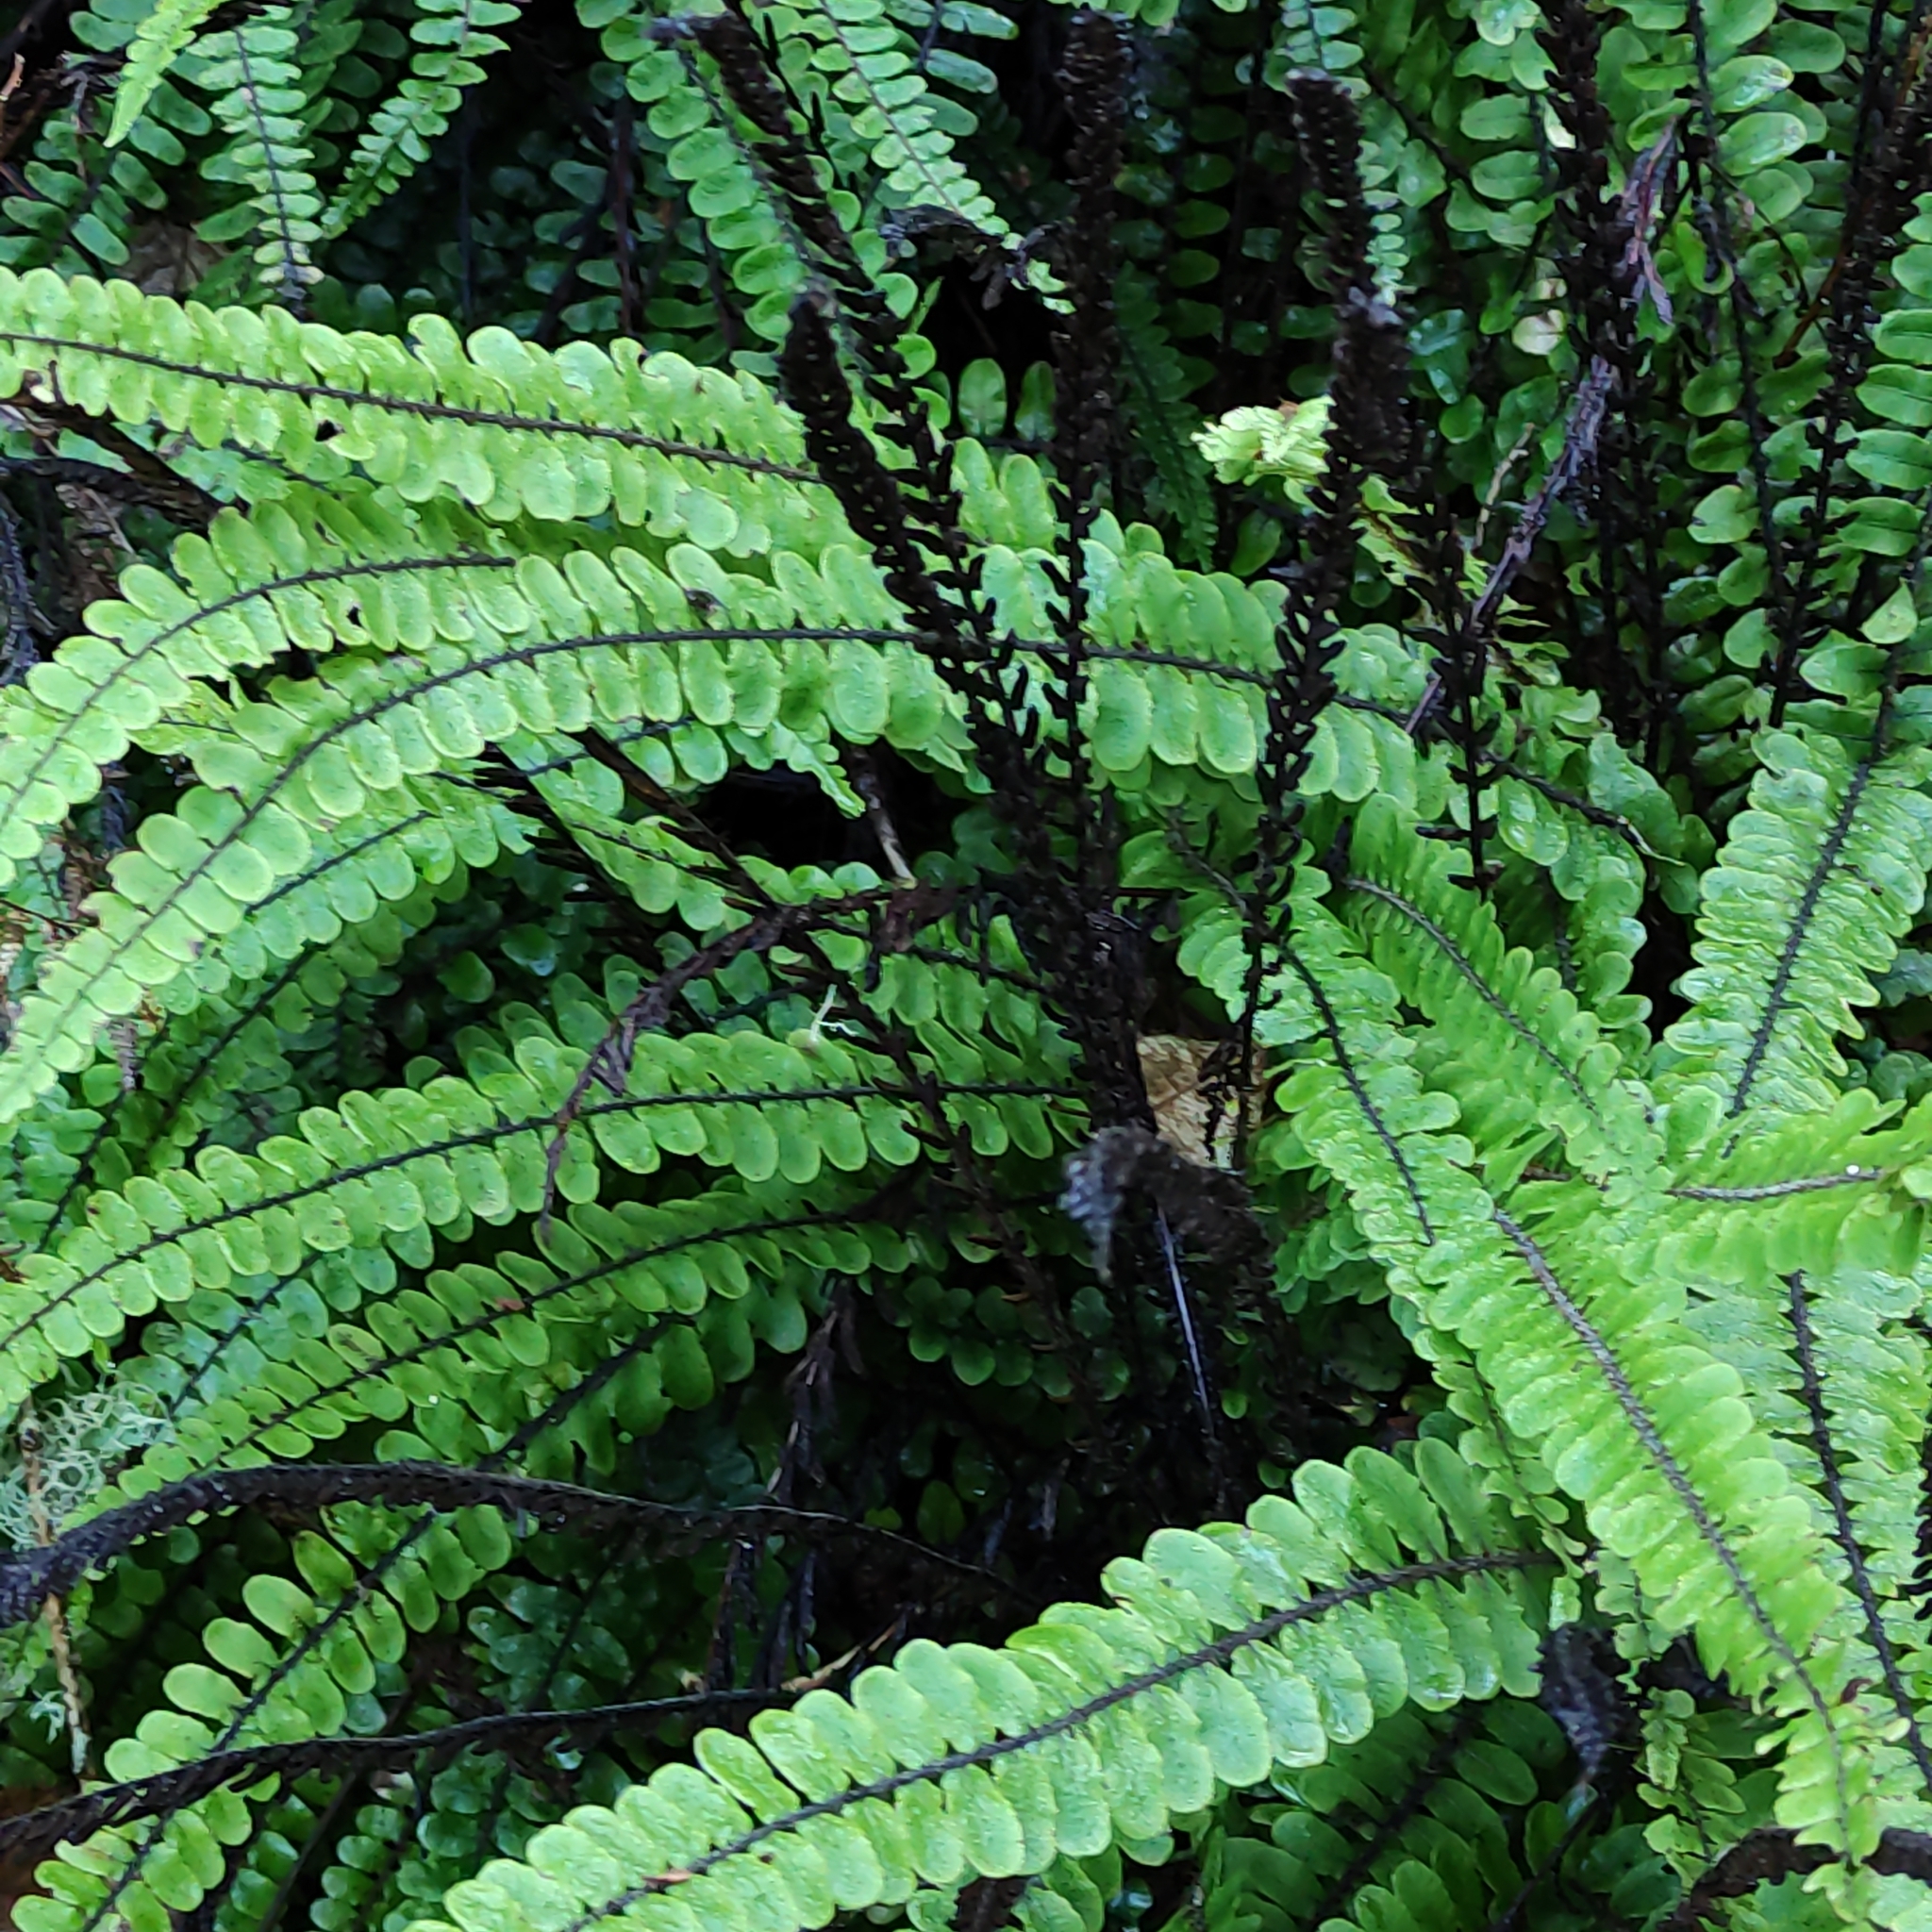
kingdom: Plantae
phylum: Tracheophyta
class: Polypodiopsida
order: Polypodiales
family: Blechnaceae
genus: Cranfillia
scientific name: Cranfillia fluviatilis
